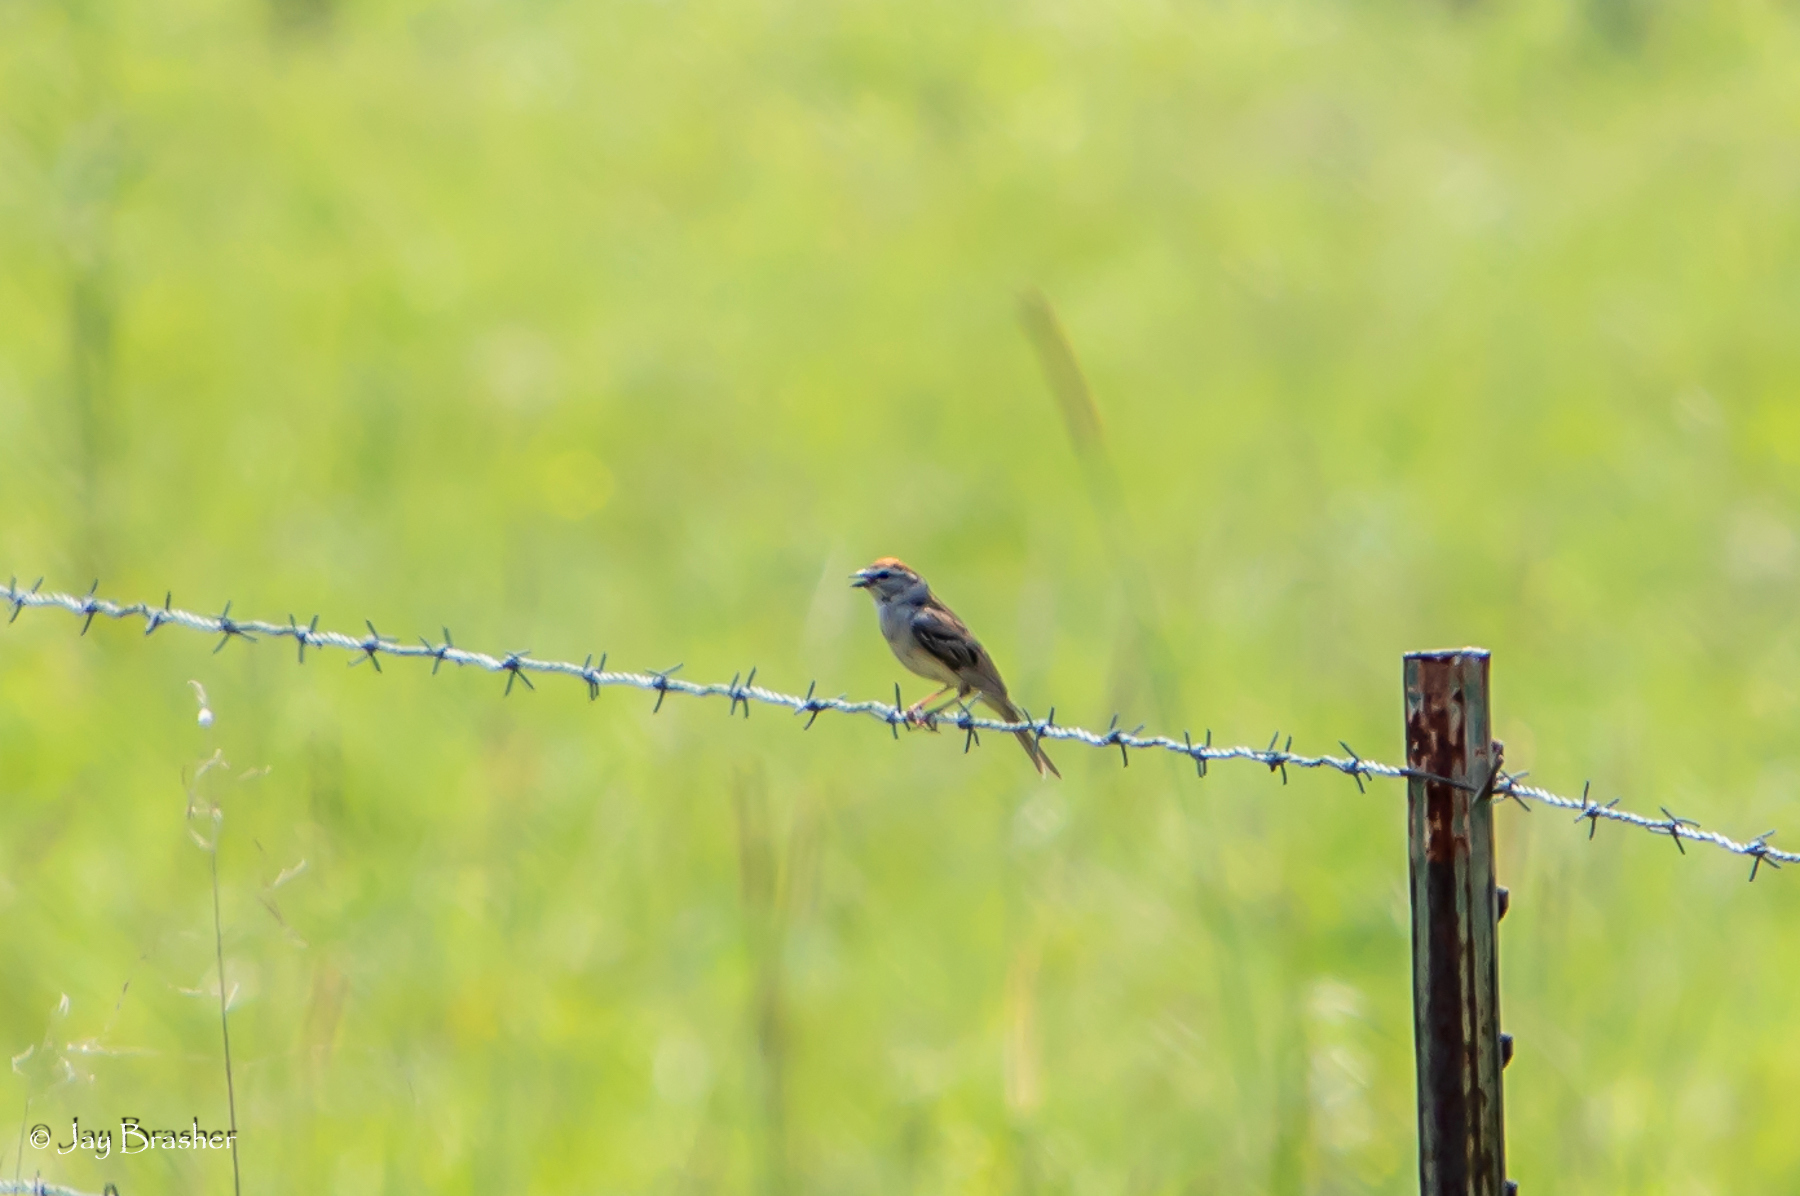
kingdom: Animalia
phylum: Chordata
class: Aves
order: Passeriformes
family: Passerellidae
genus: Spizella
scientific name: Spizella passerina
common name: Chipping sparrow
